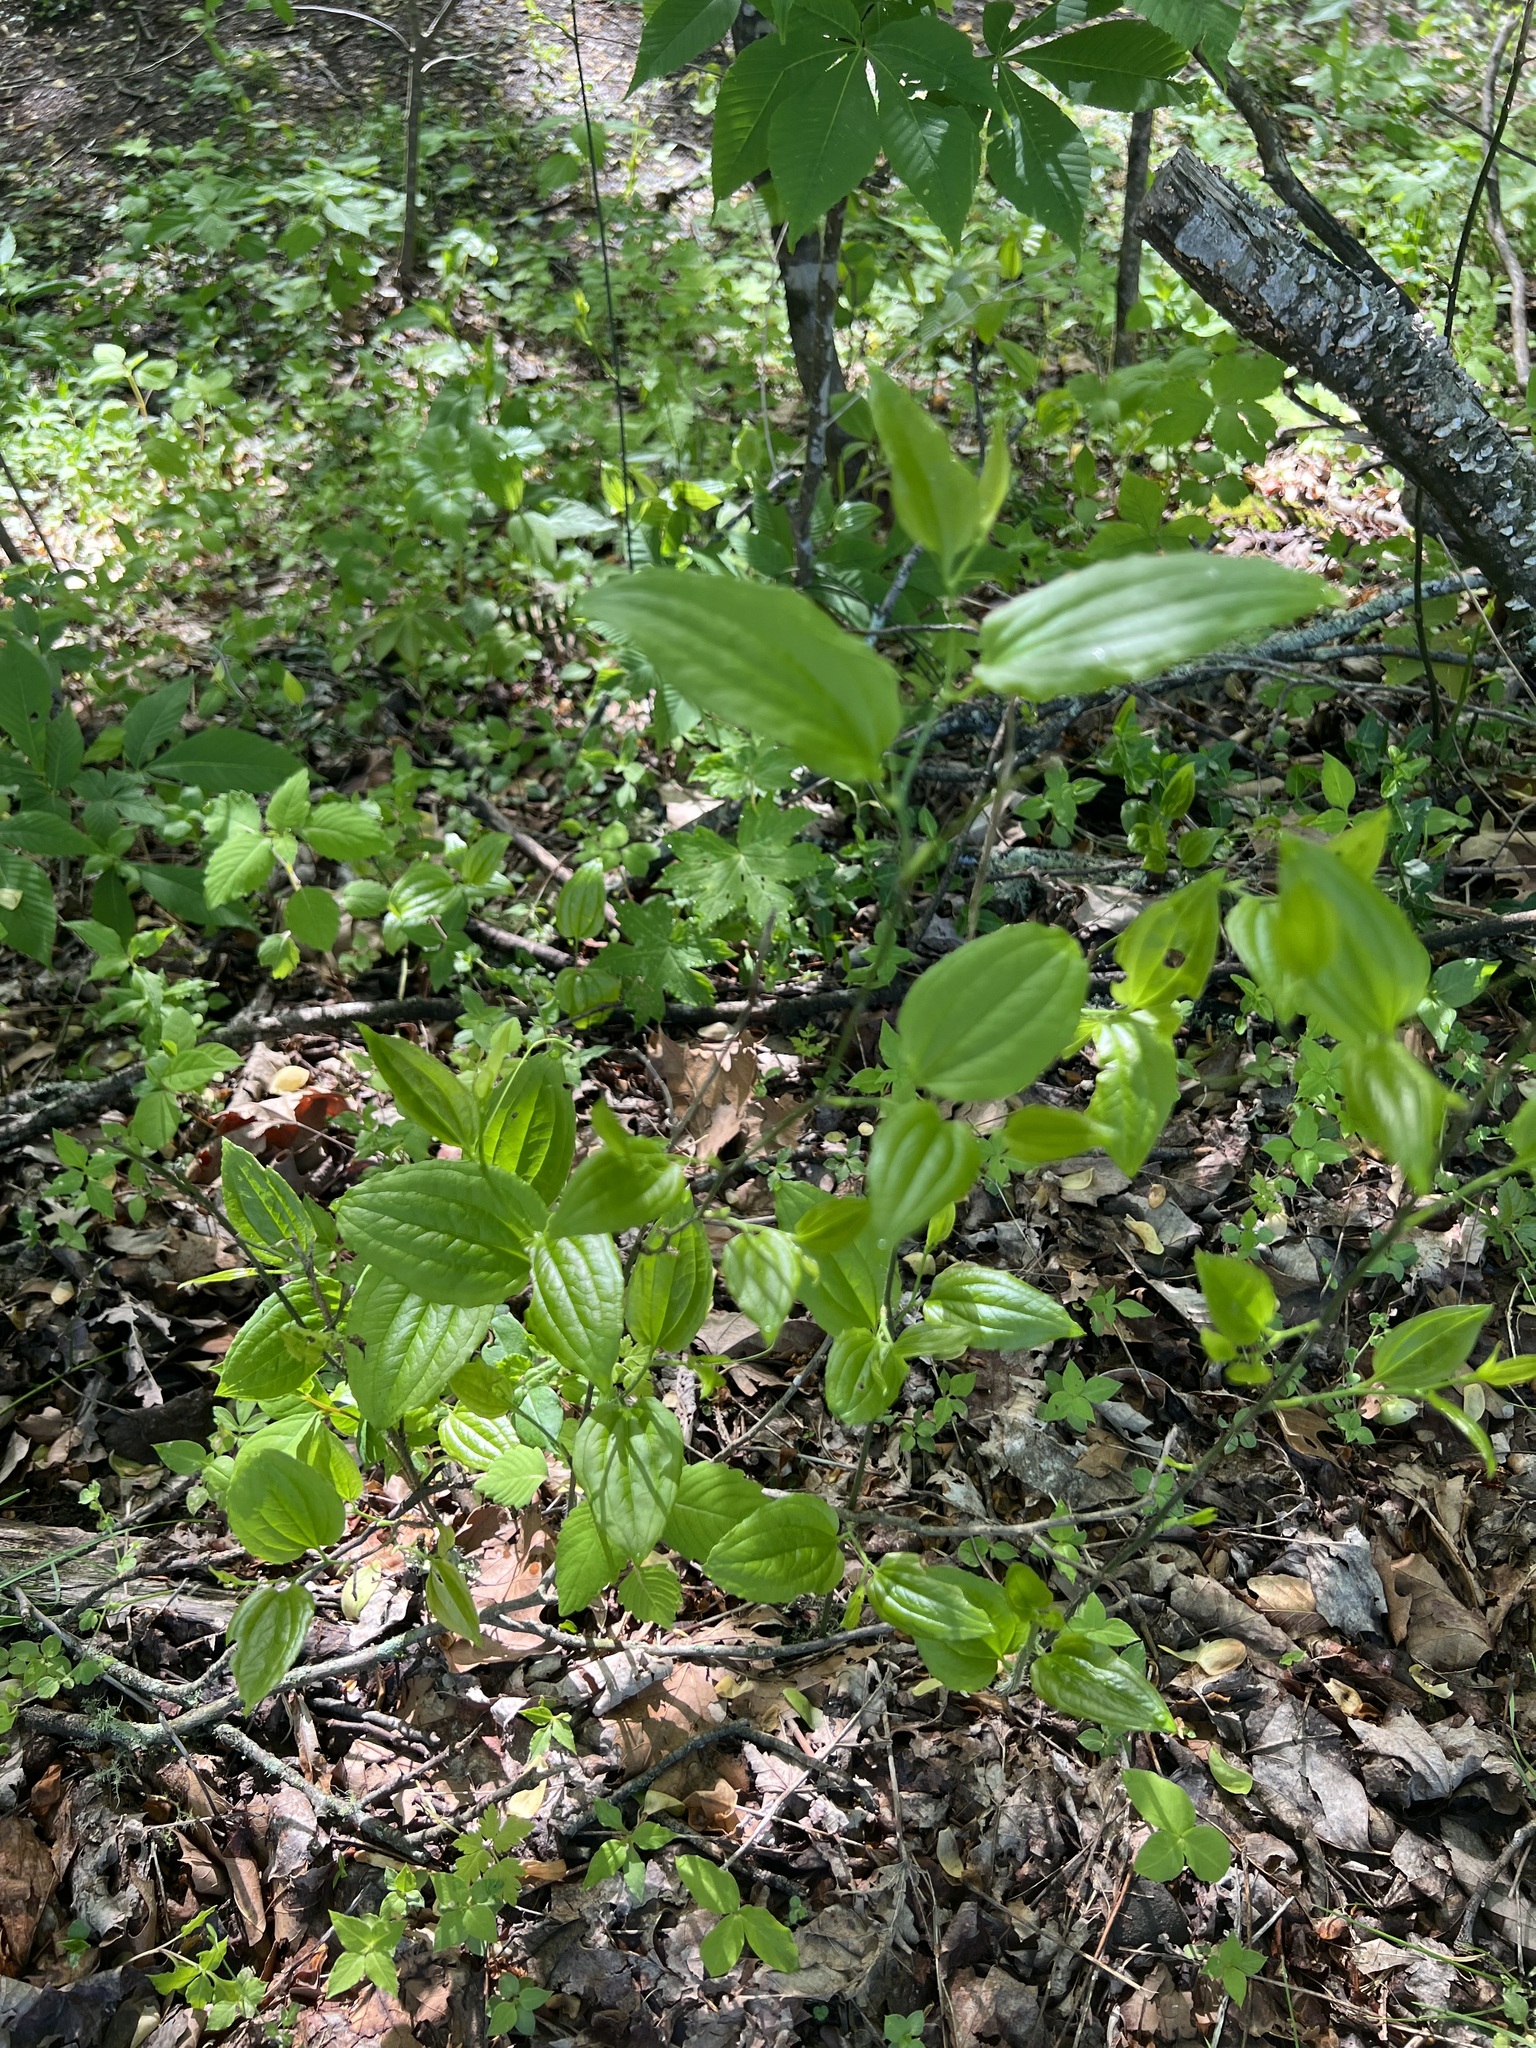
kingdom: Plantae
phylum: Tracheophyta
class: Liliopsida
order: Liliales
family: Smilacaceae
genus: Smilax
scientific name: Smilax tamnoides
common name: Hellfetter
